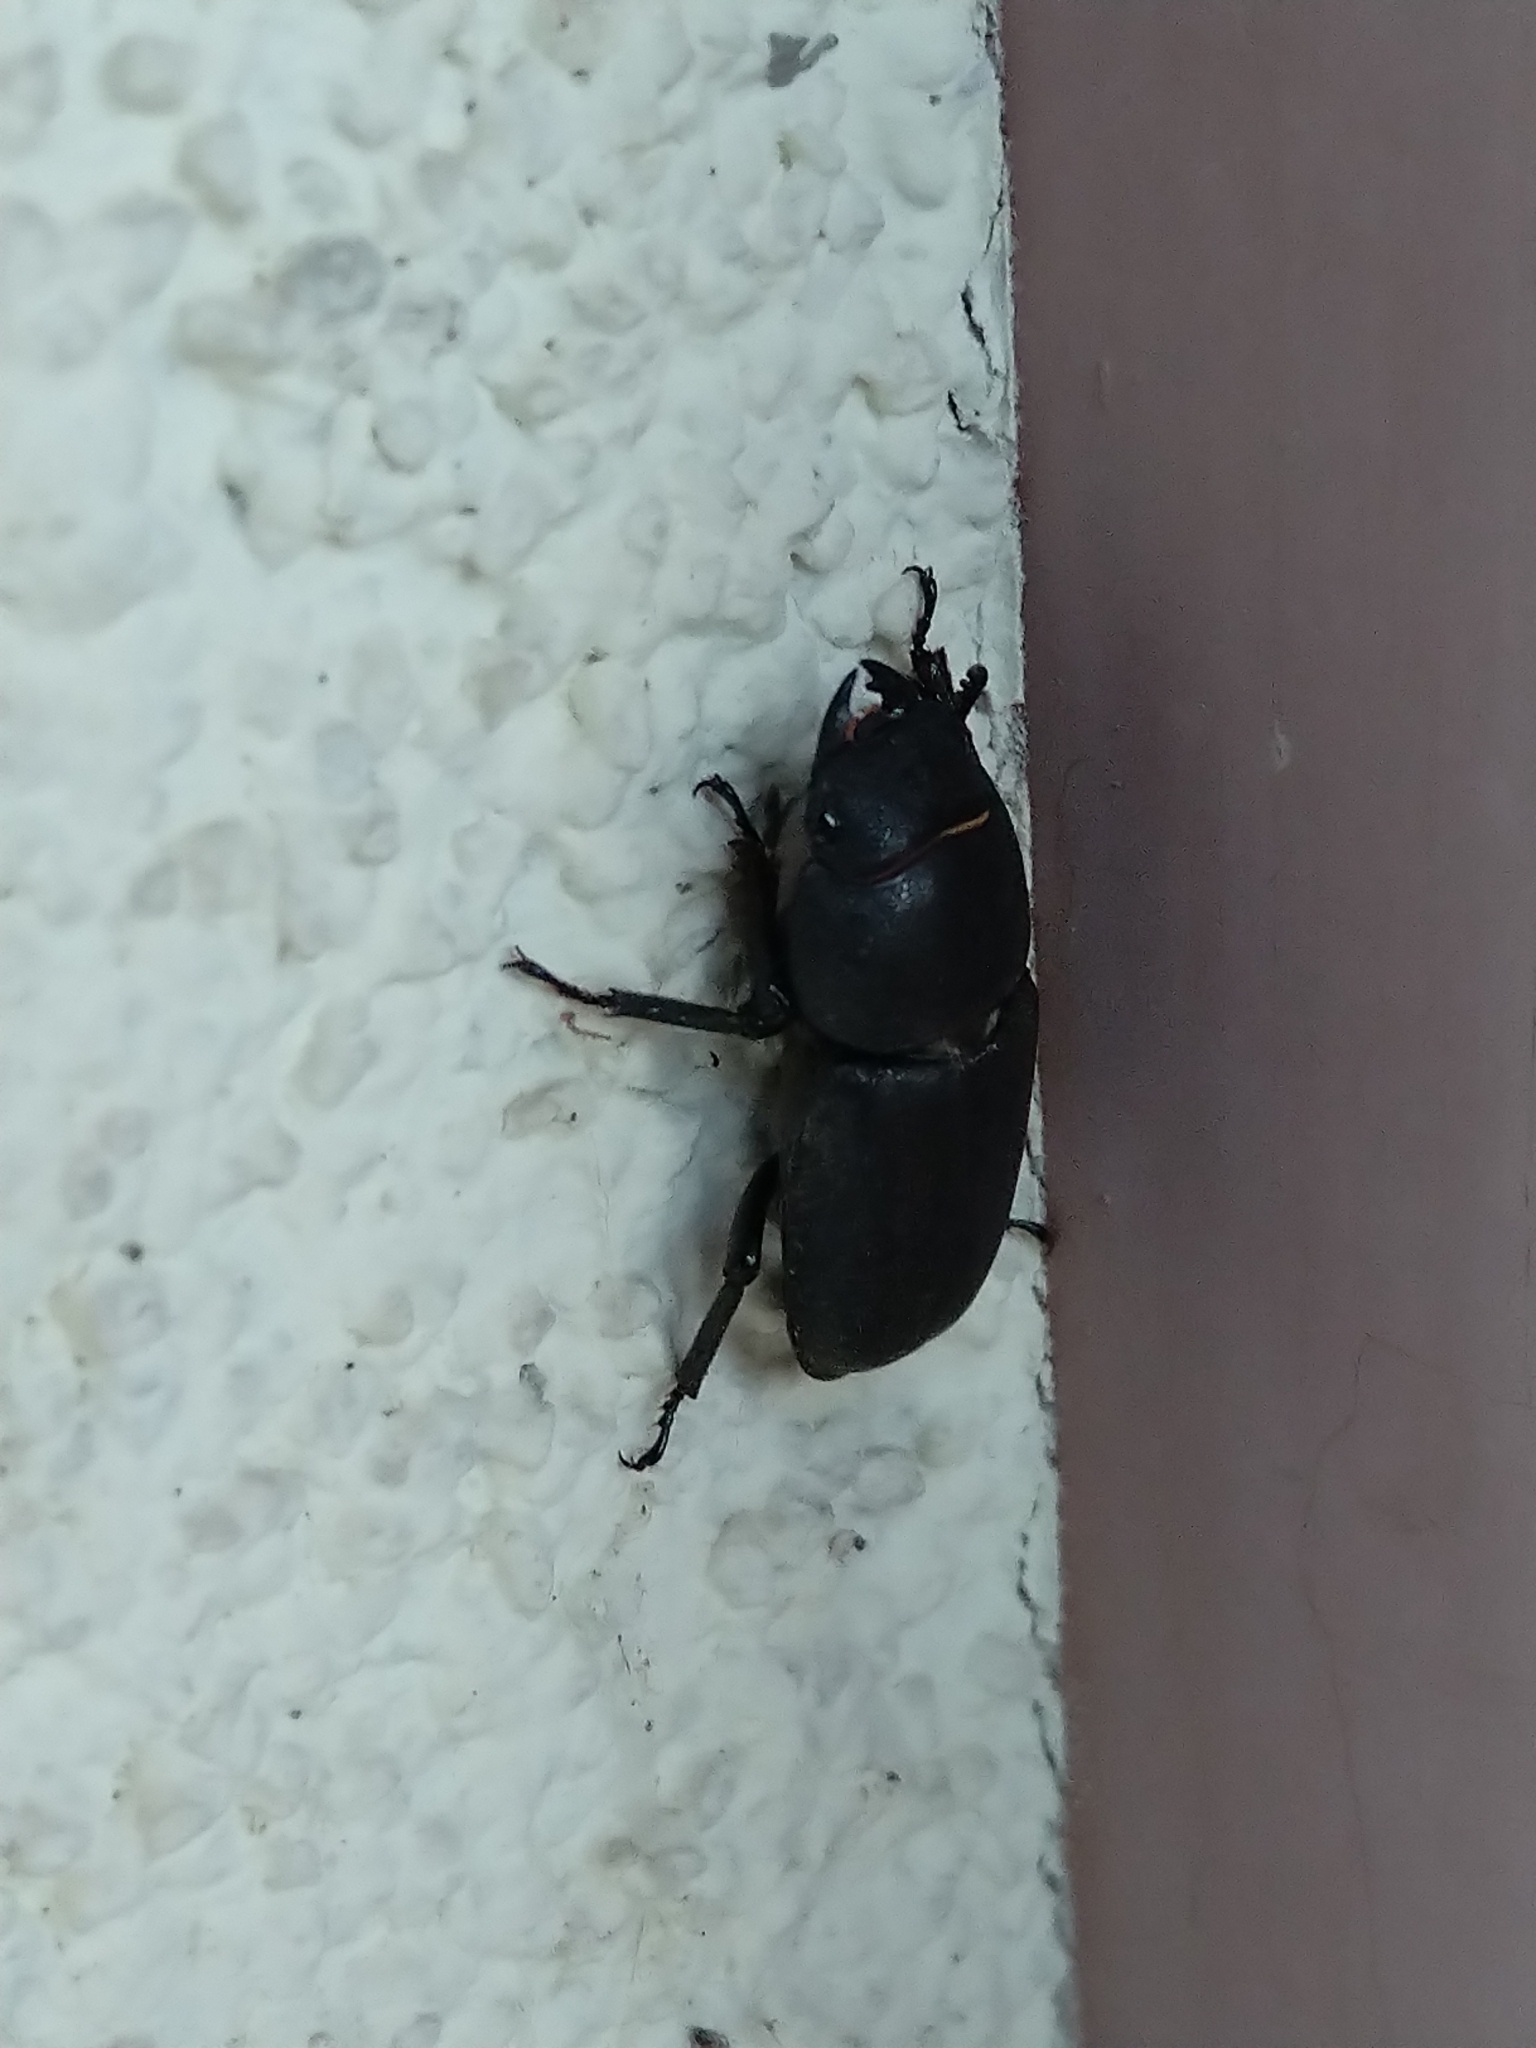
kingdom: Animalia
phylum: Arthropoda
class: Insecta
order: Coleoptera
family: Lucanidae
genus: Dorcus
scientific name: Dorcus parallelipipedus
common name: Lesser stag beetle
